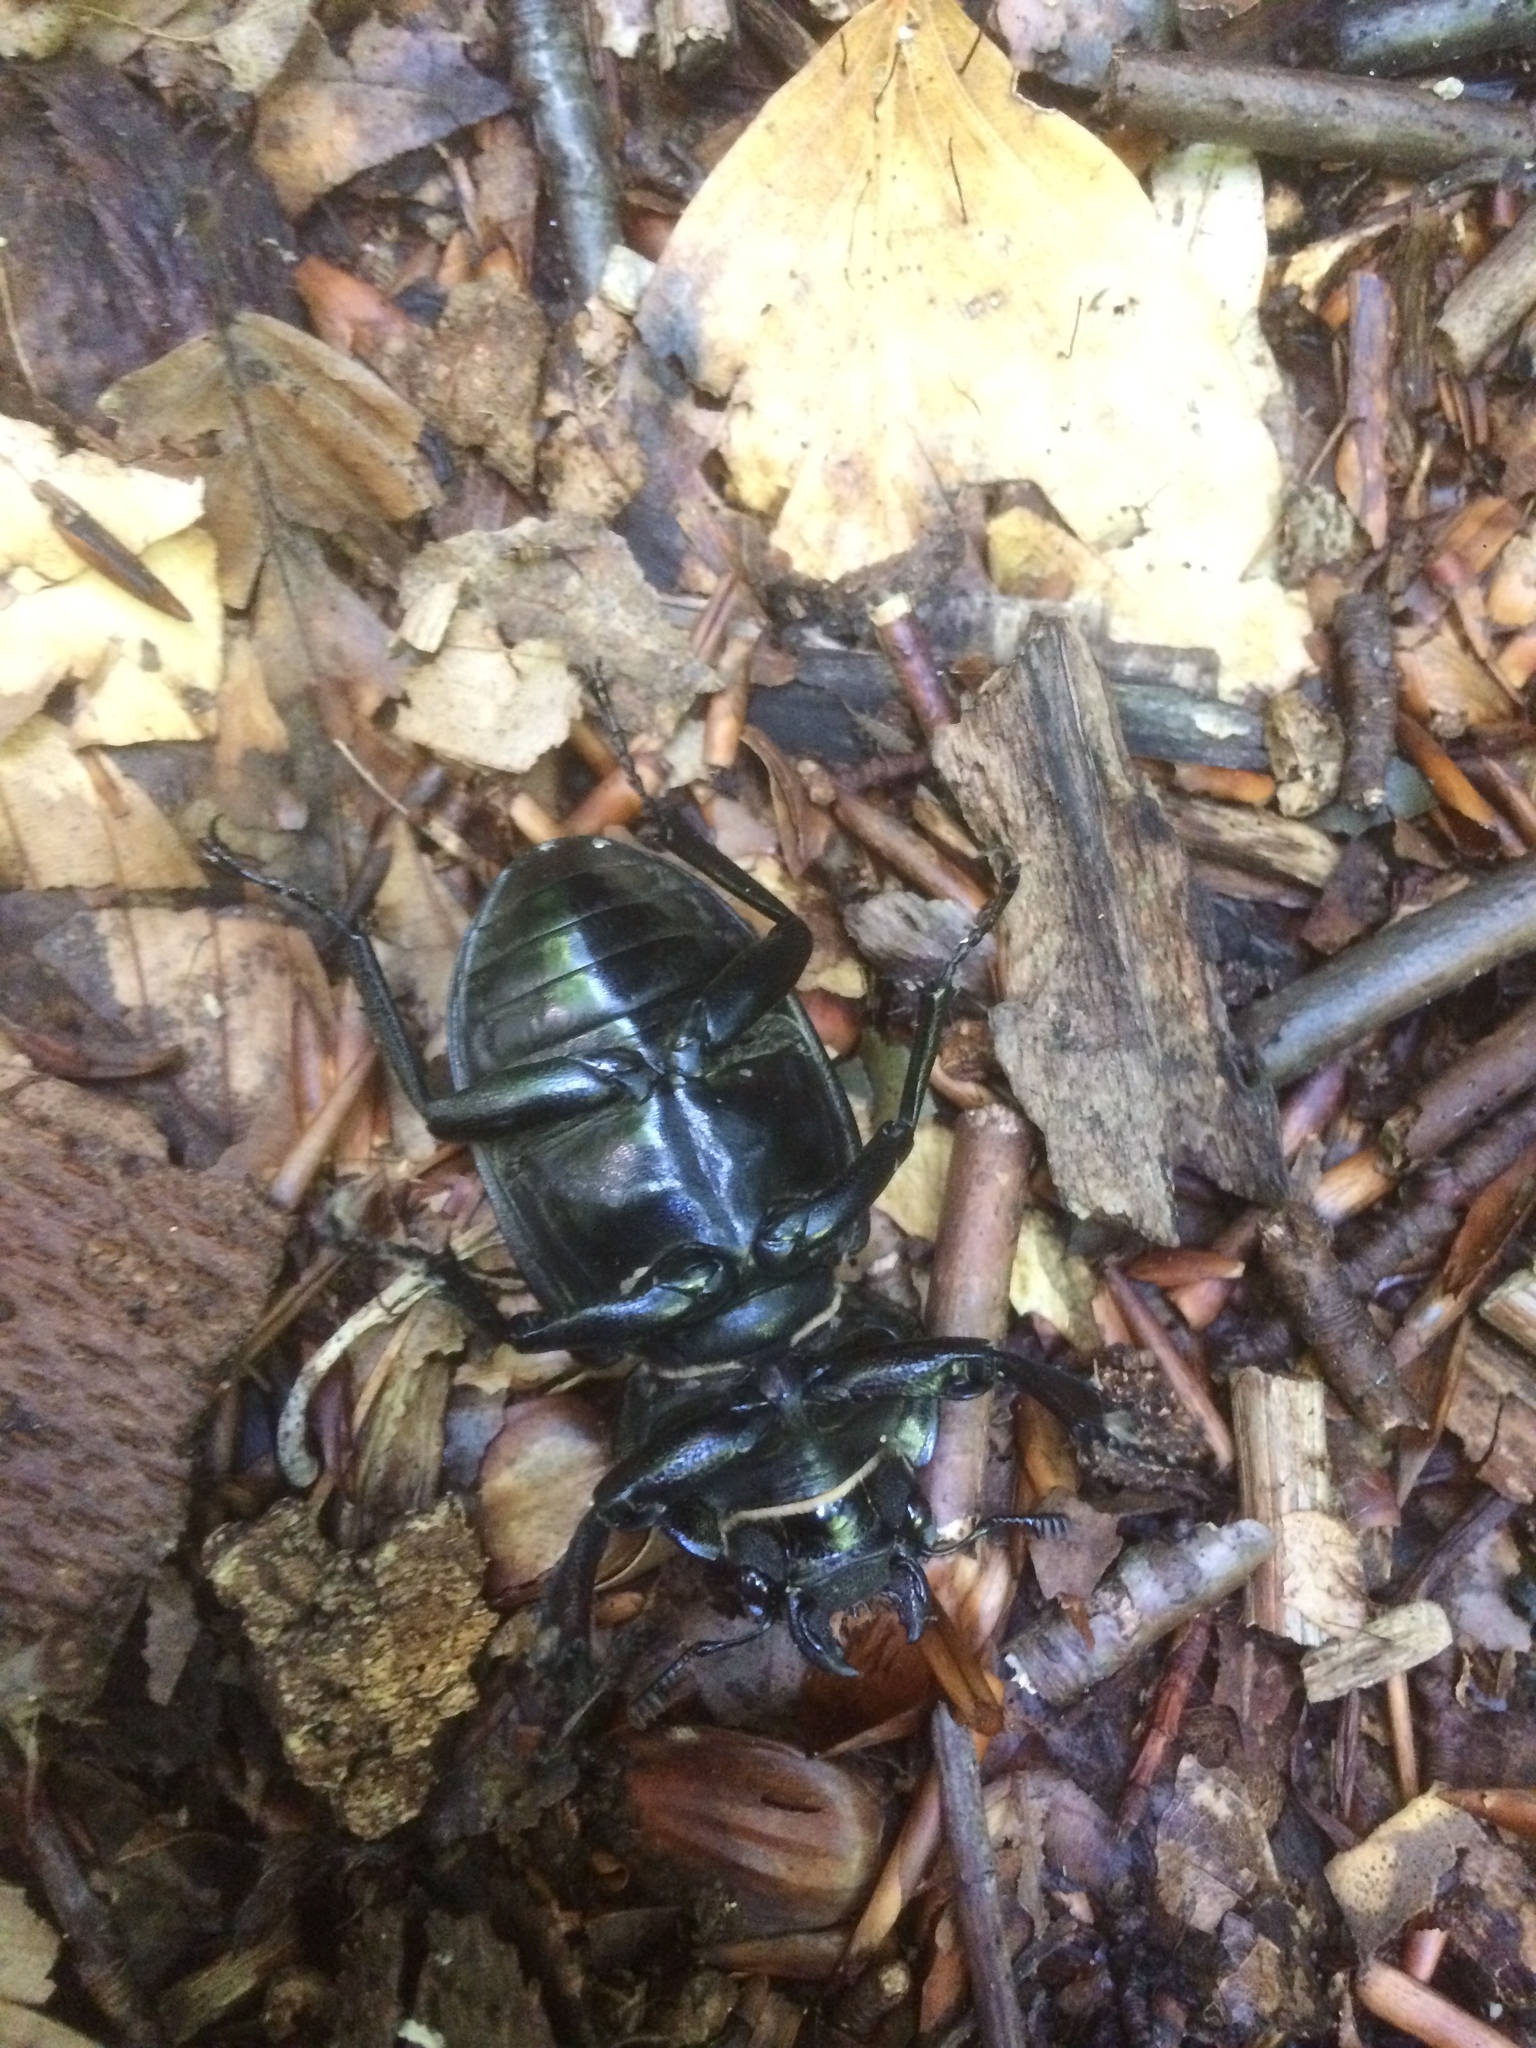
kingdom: Animalia
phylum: Arthropoda
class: Insecta
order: Coleoptera
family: Lucanidae
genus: Lucanus
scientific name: Lucanus cervus
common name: Stag beetle
